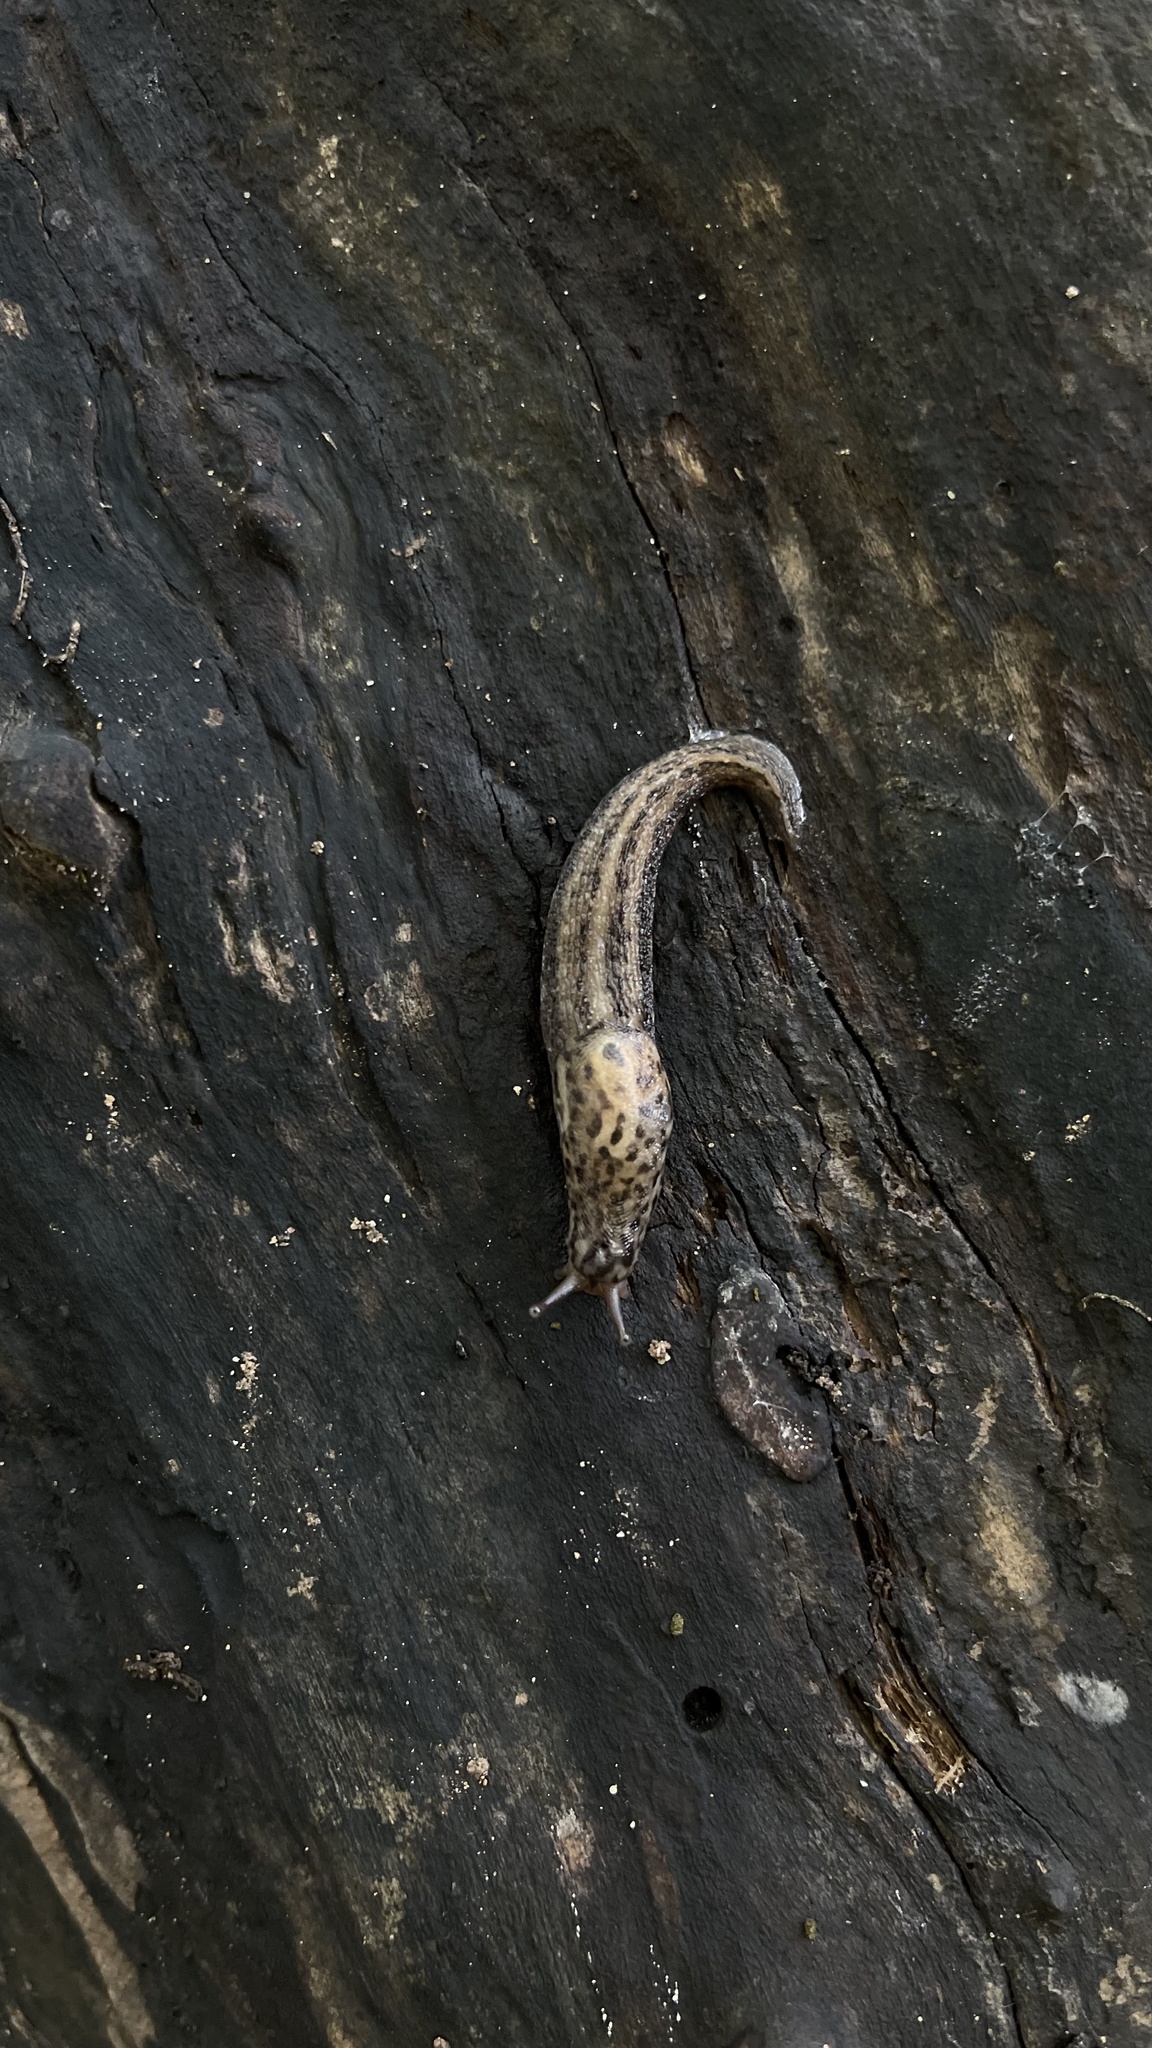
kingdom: Animalia
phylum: Mollusca
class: Gastropoda
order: Stylommatophora
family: Limacidae
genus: Limax
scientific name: Limax maximus
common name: Great grey slug
